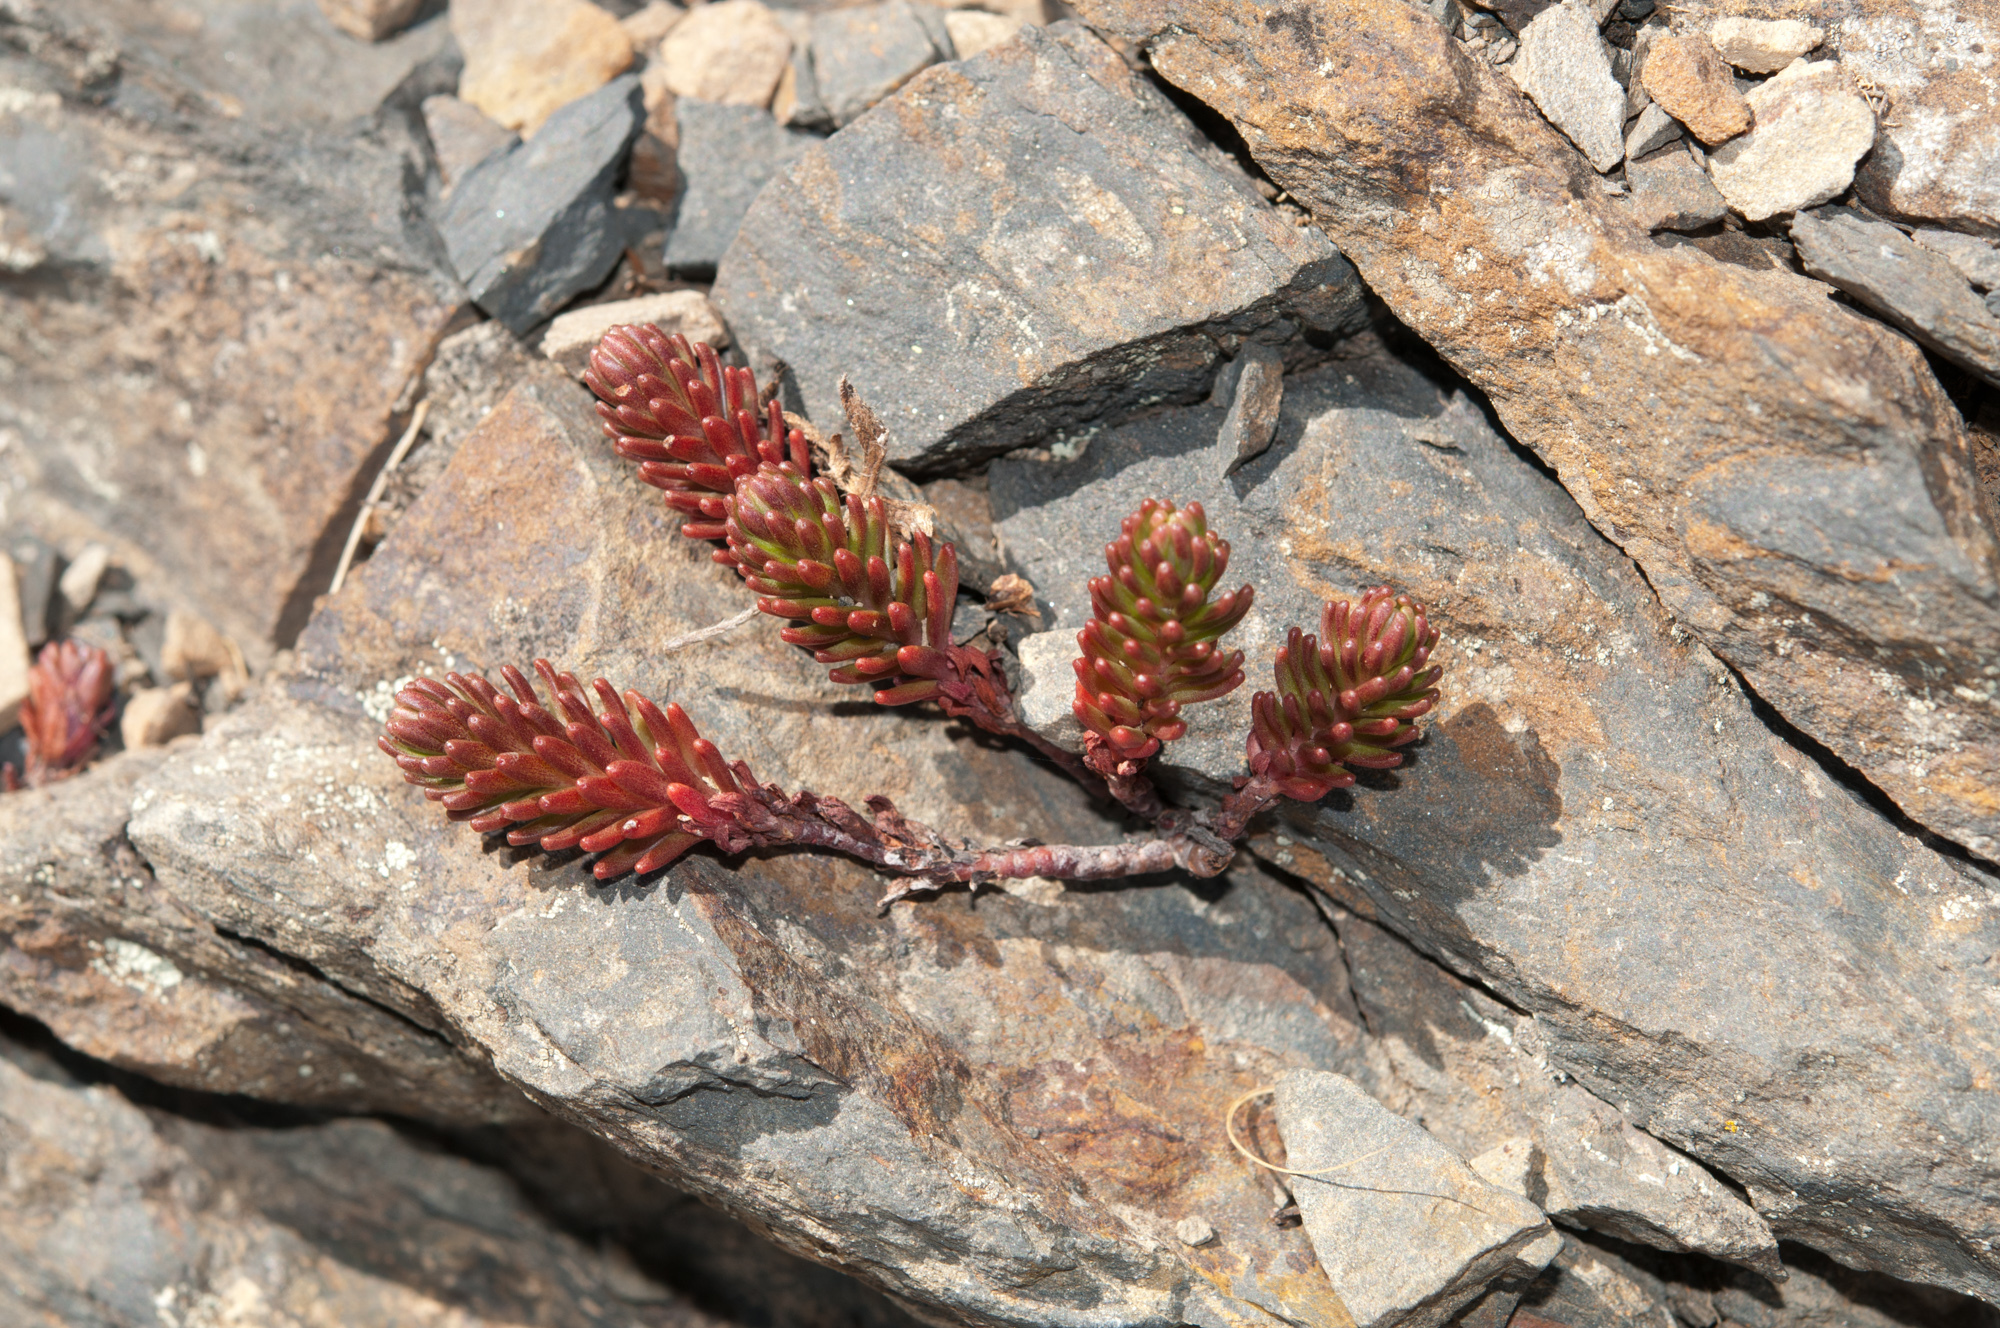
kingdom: Plantae
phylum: Tracheophyta
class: Magnoliopsida
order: Saxifragales
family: Crassulaceae
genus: Sedum
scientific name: Sedum morrisonense
